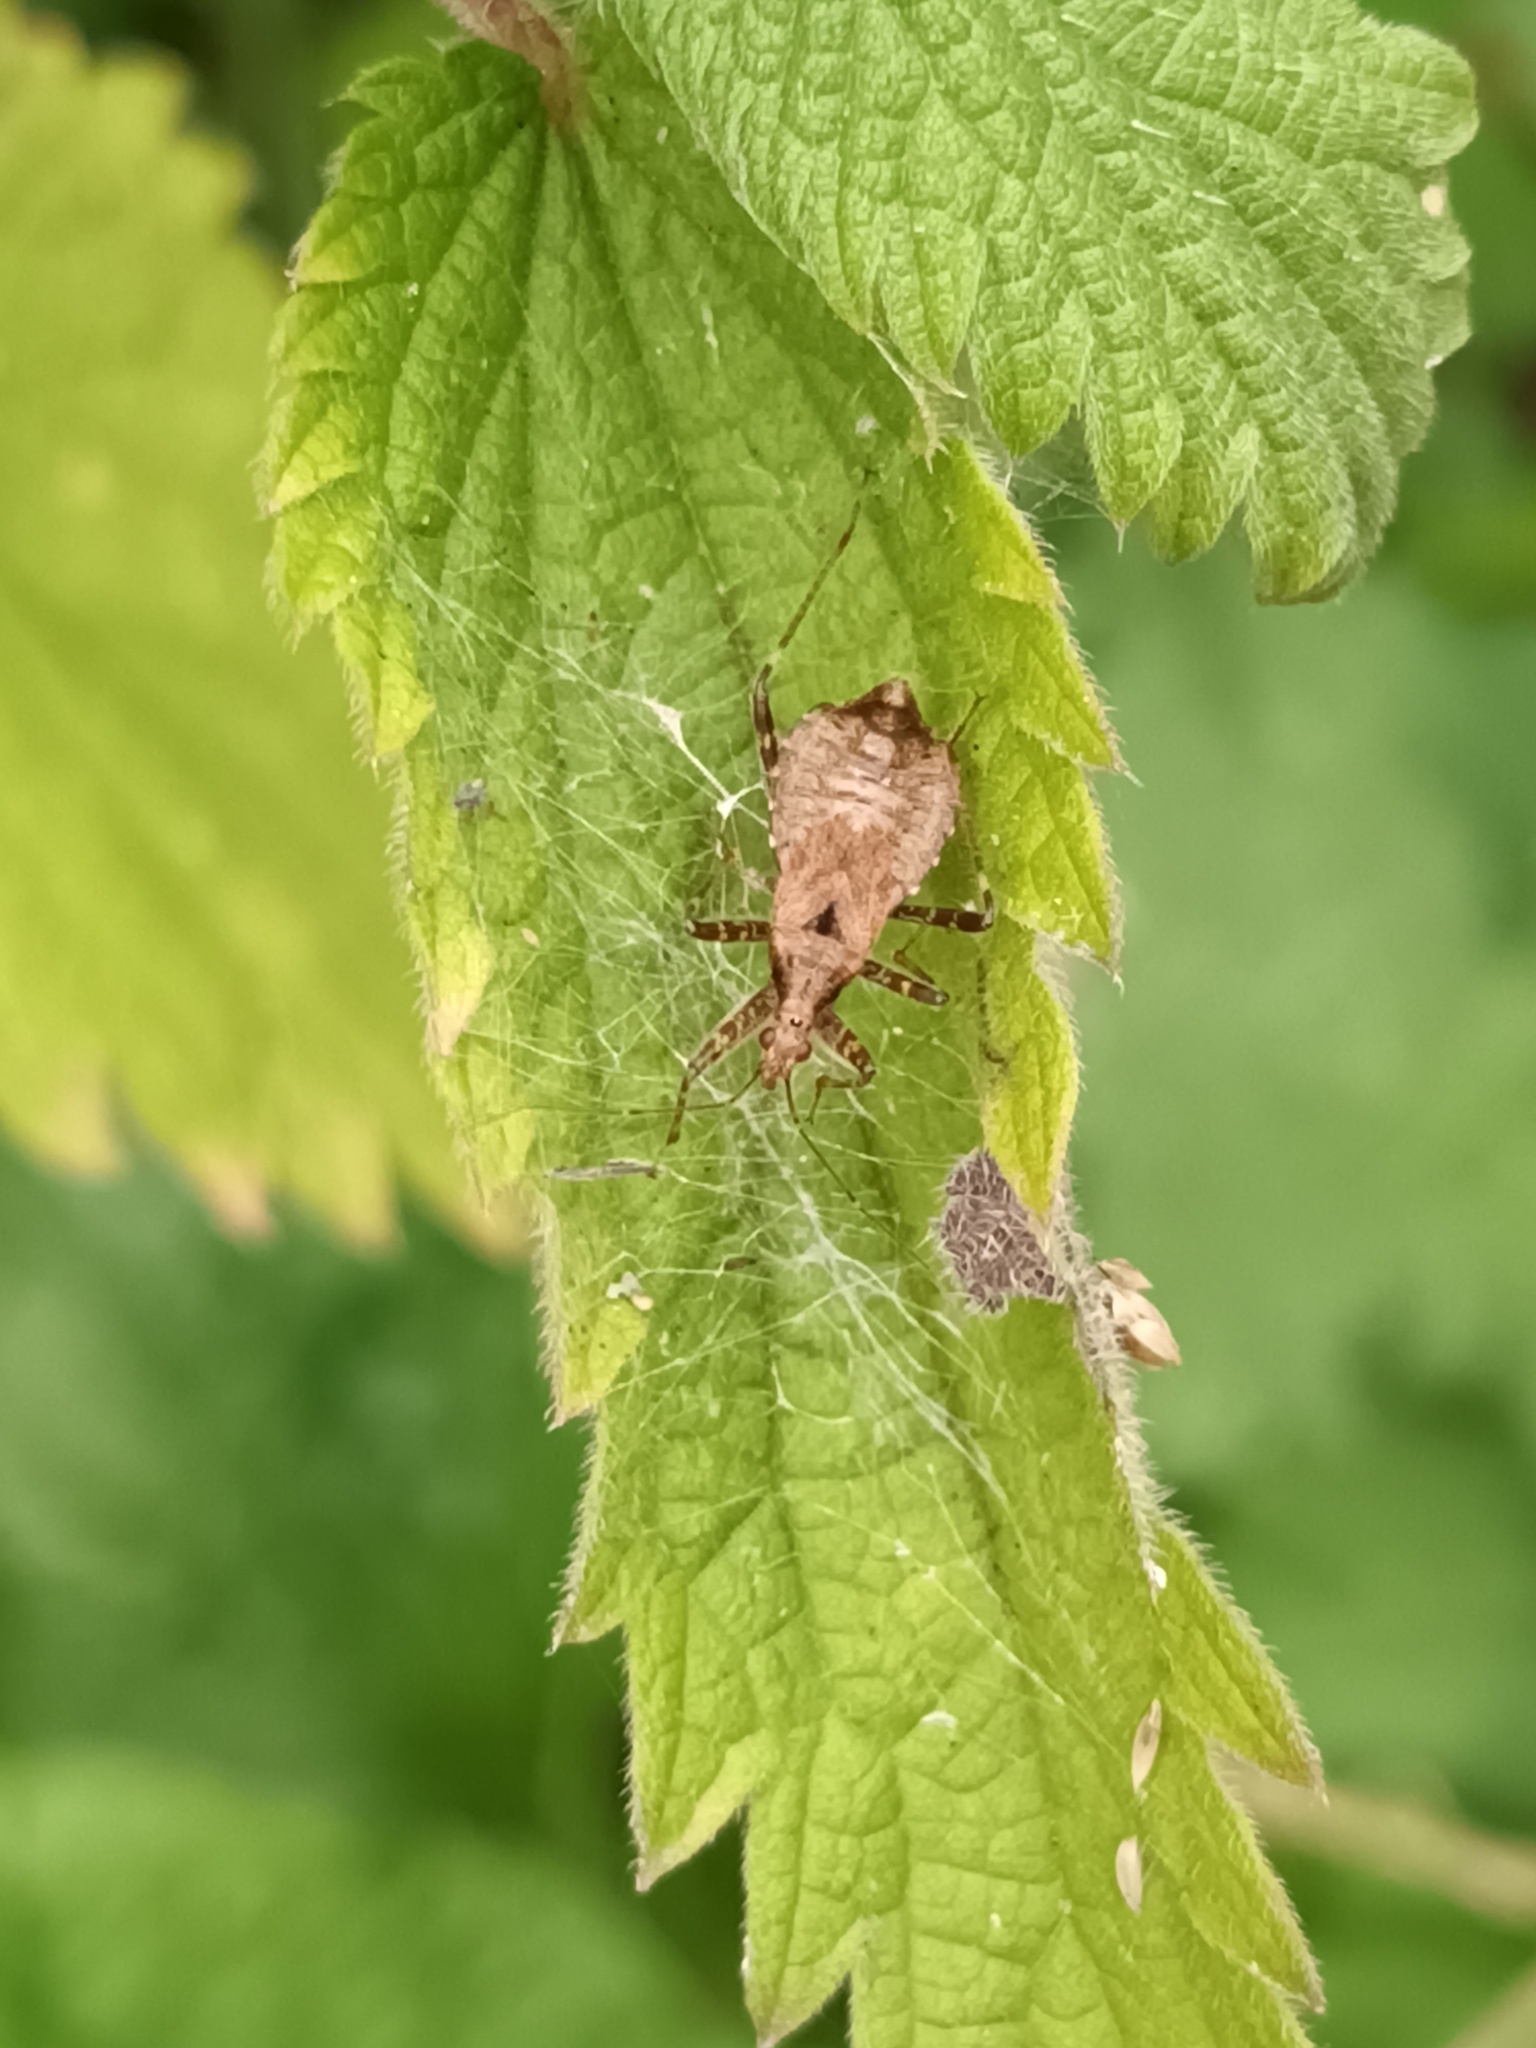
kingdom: Animalia
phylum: Arthropoda
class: Insecta
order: Hemiptera
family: Nabidae
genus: Himacerus
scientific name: Himacerus apterus
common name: Tree damsel bug
